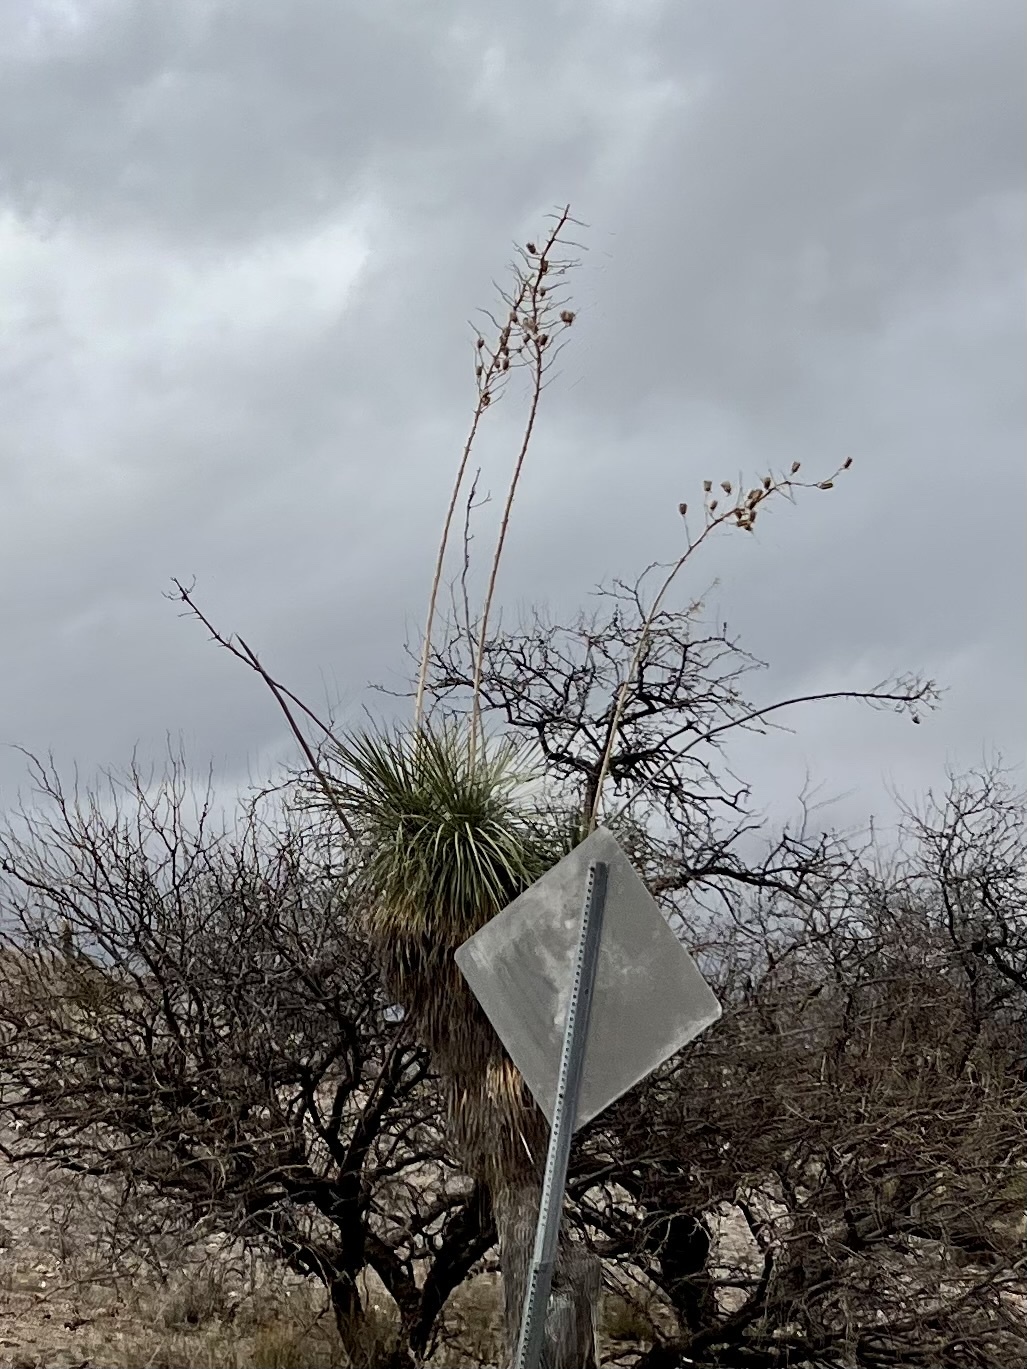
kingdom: Plantae
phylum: Tracheophyta
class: Liliopsida
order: Asparagales
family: Asparagaceae
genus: Yucca
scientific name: Yucca elata
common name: Palmella
